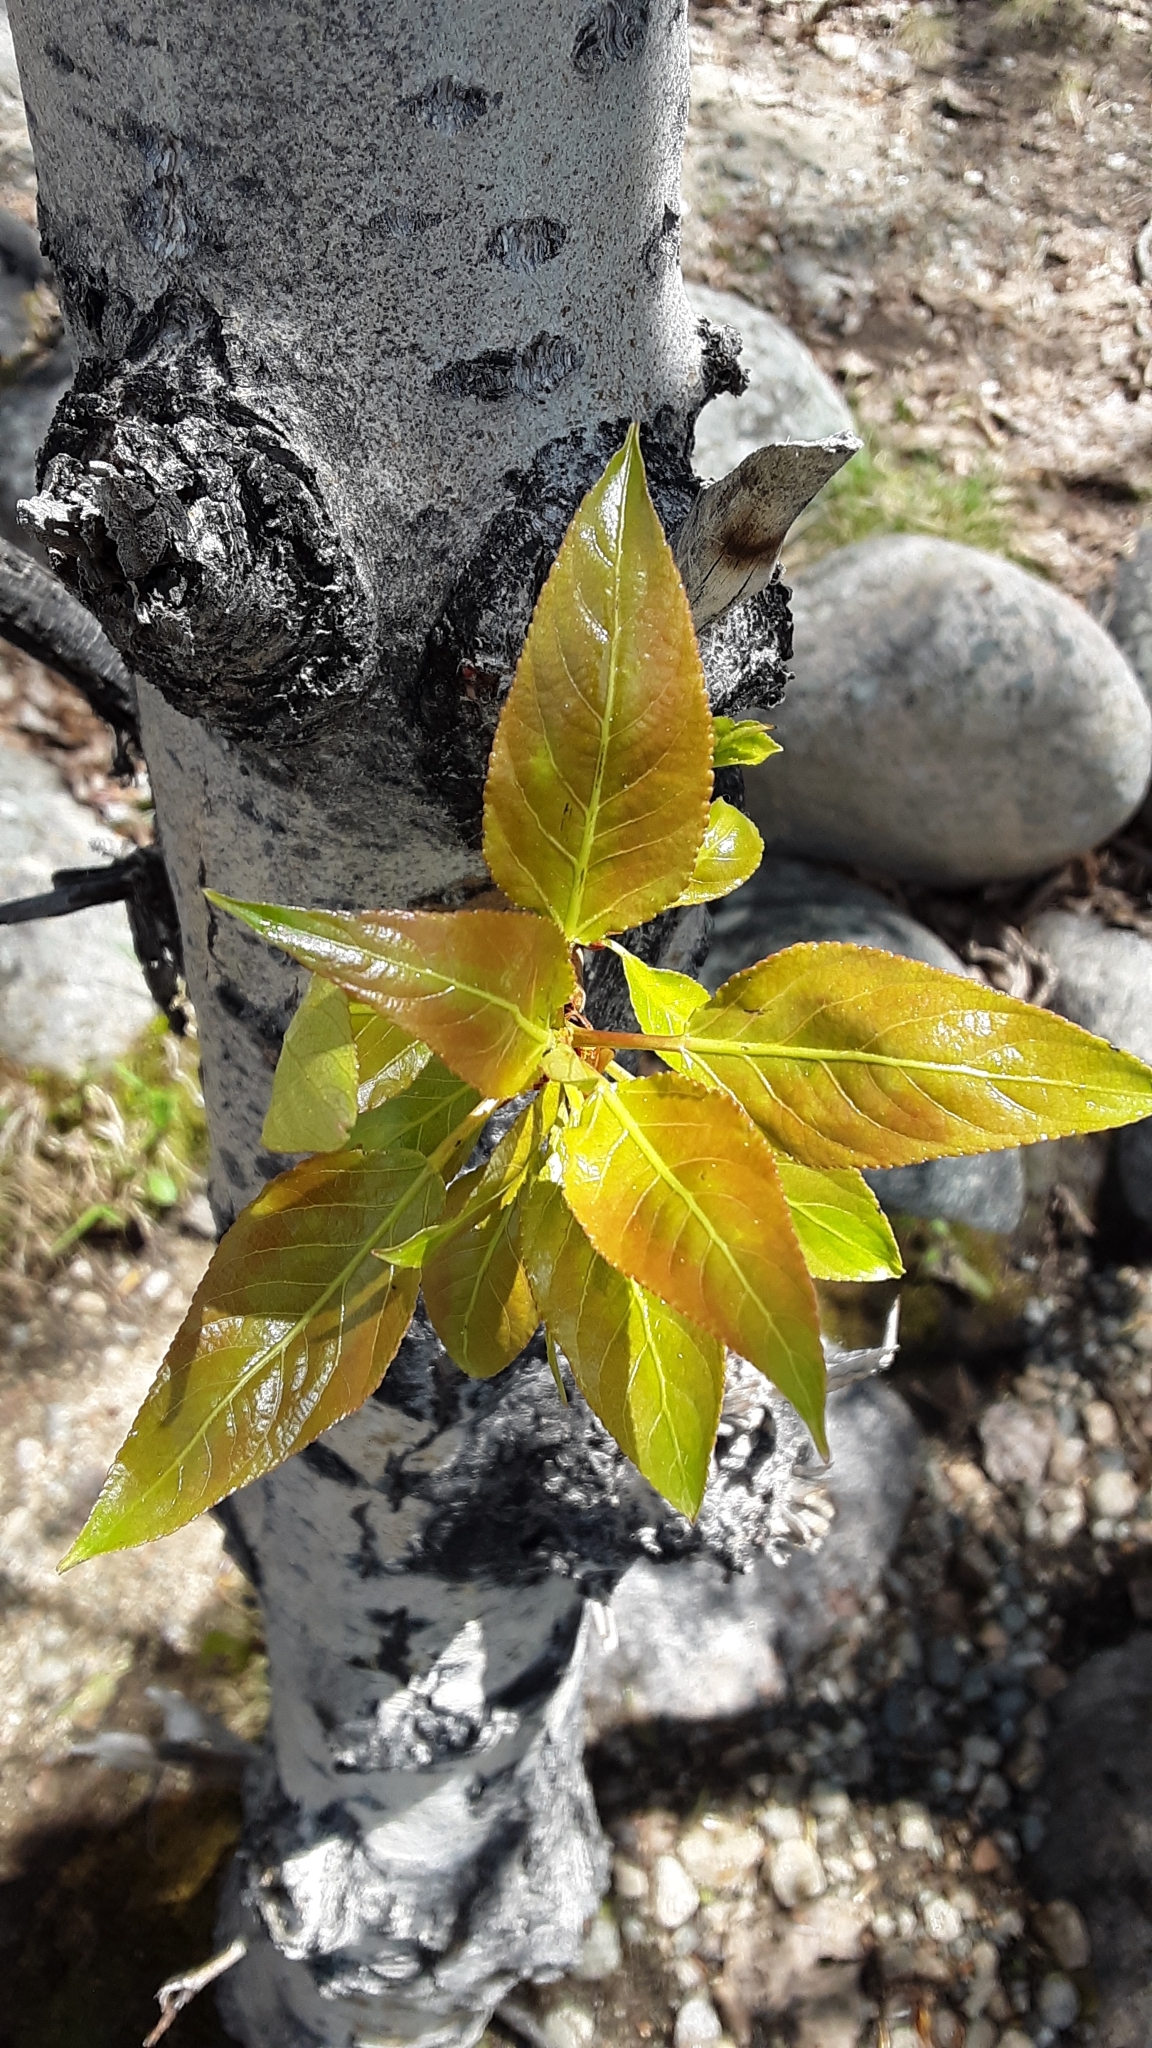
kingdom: Plantae
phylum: Tracheophyta
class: Magnoliopsida
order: Malpighiales
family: Salicaceae
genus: Populus
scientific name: Populus trichocarpa
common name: Black cottonwood
